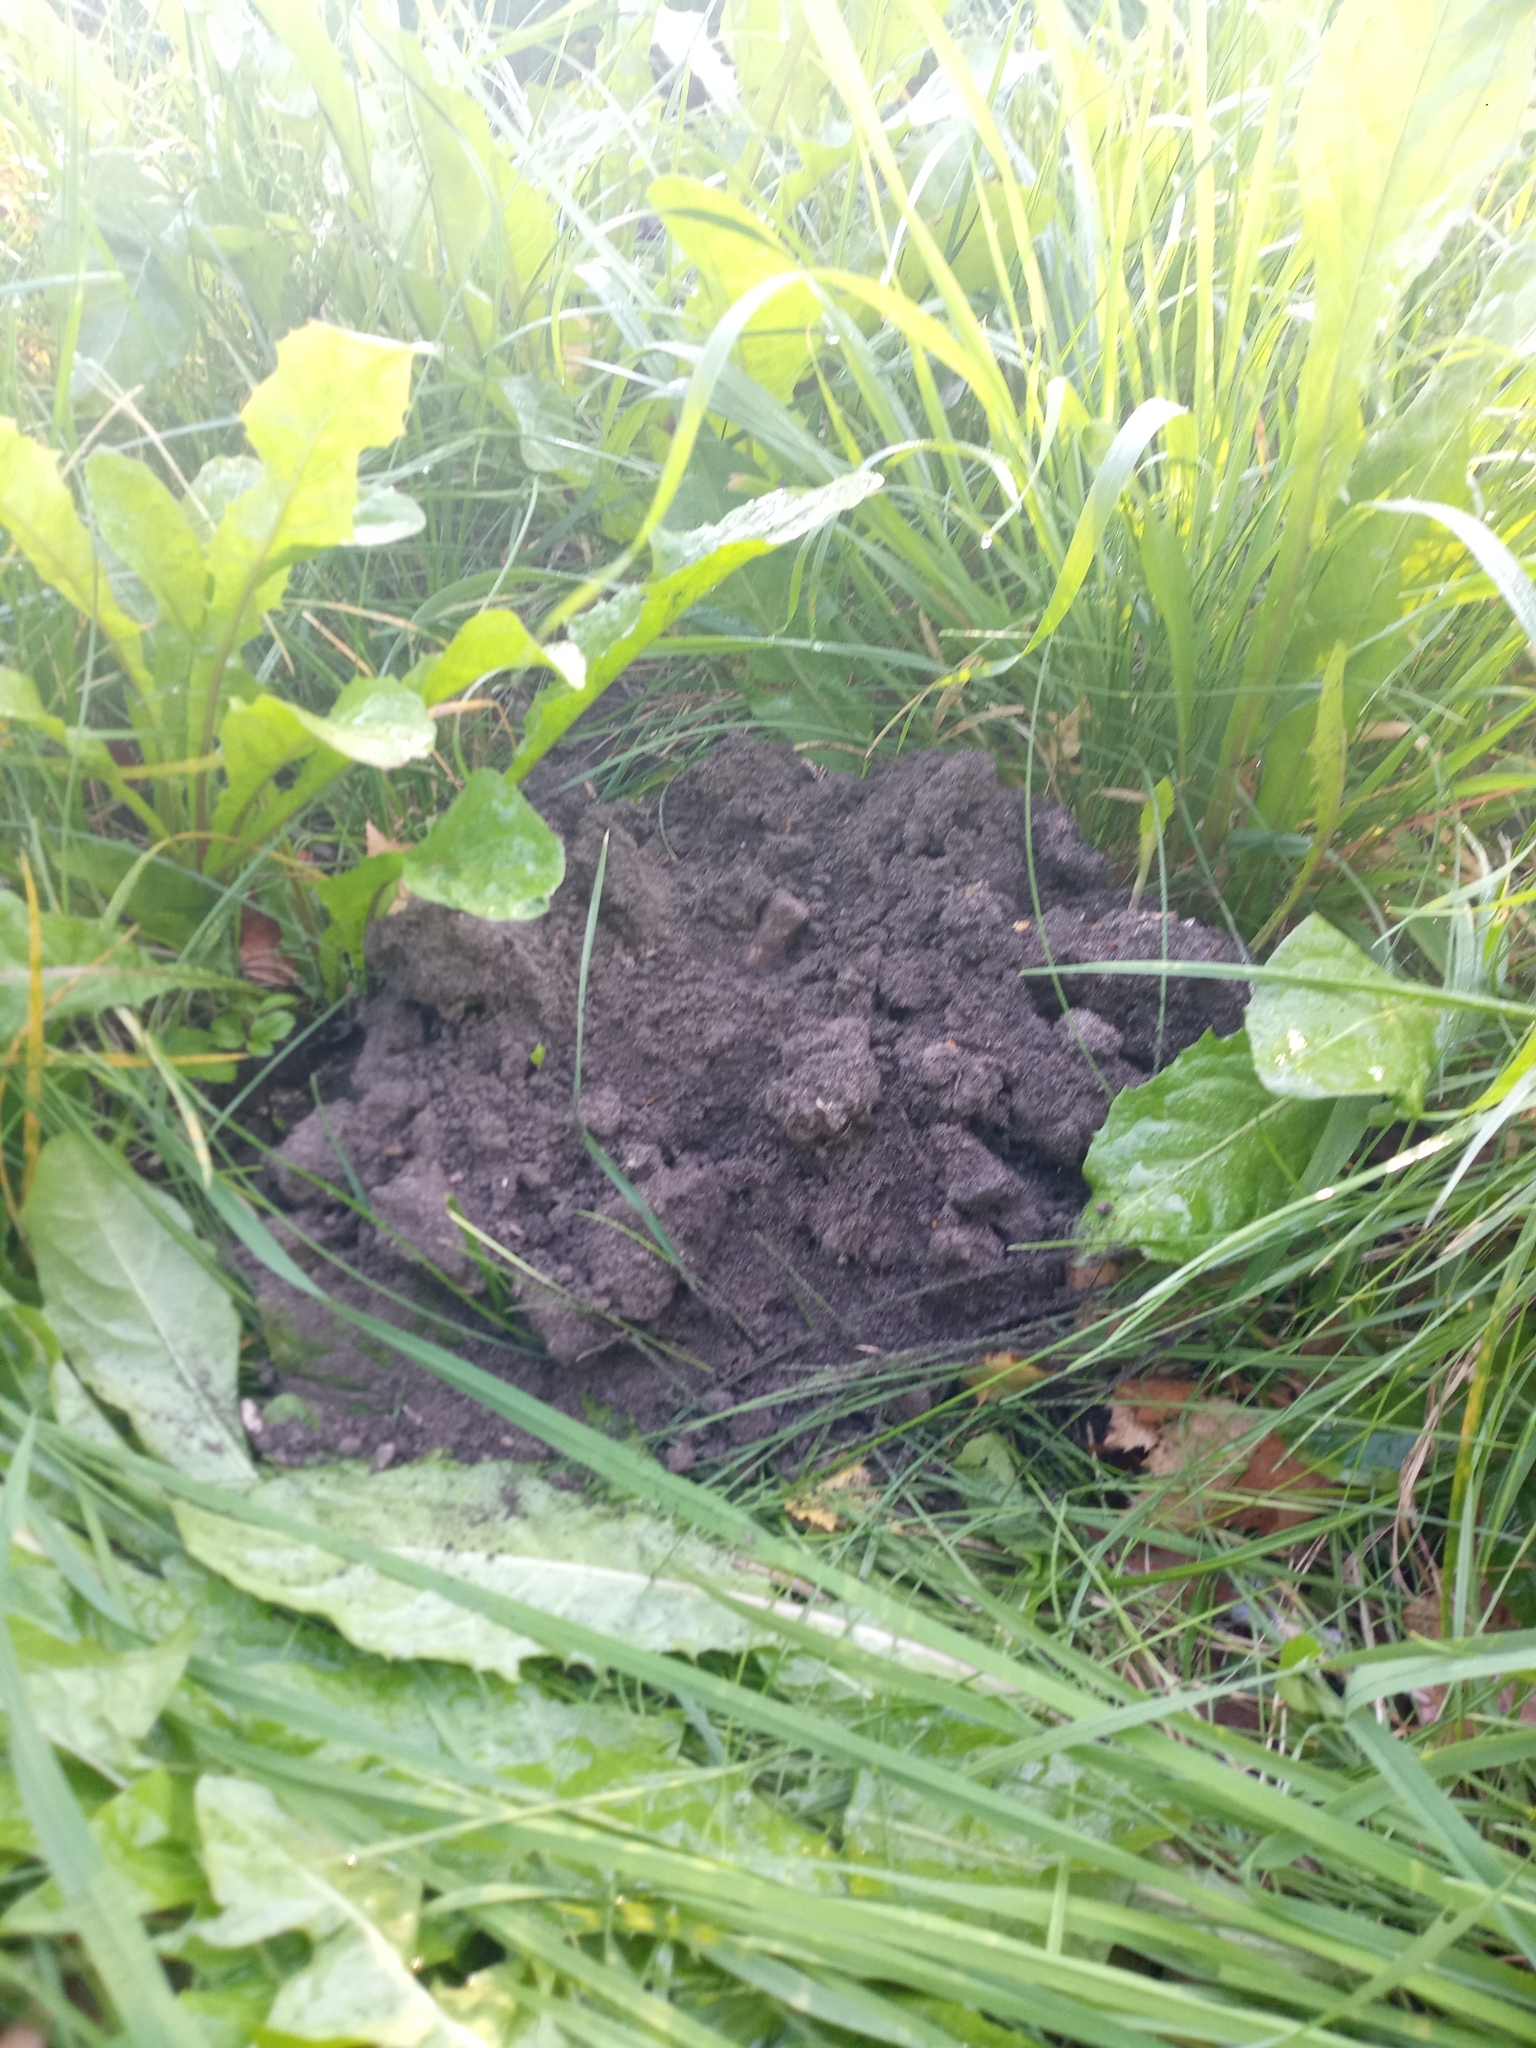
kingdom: Animalia
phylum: Chordata
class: Mammalia
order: Soricomorpha
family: Talpidae
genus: Talpa
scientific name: Talpa europaea
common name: European mole
